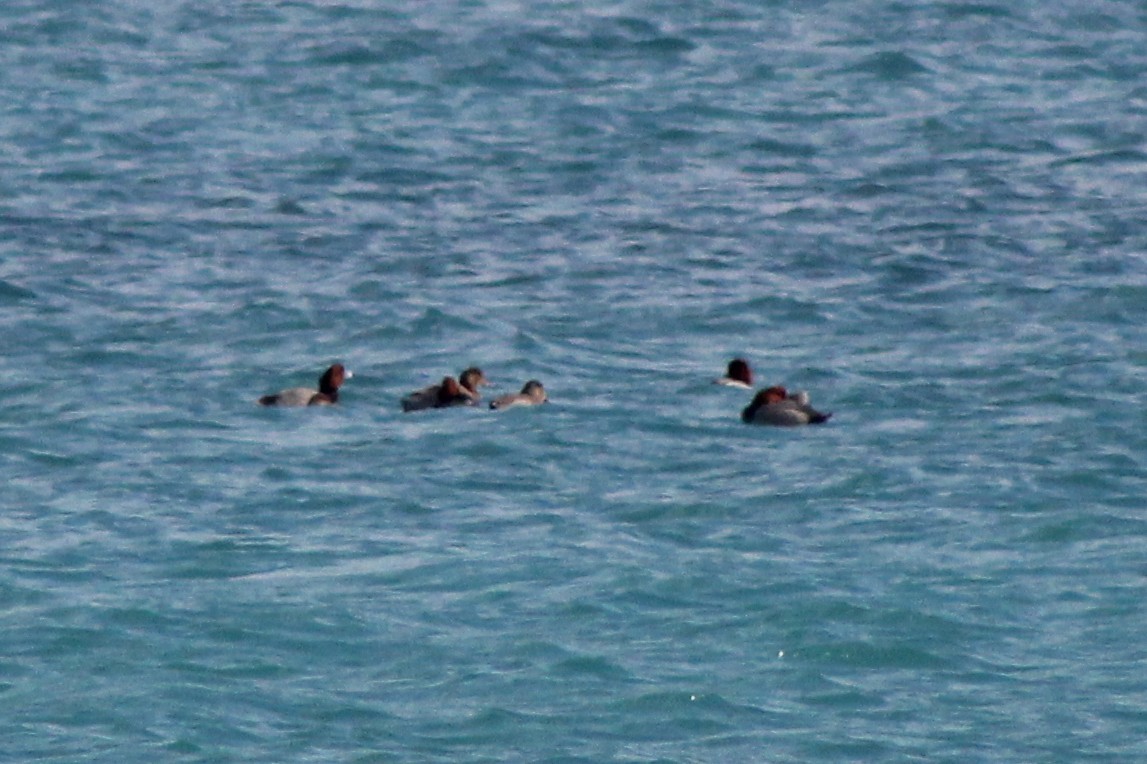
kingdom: Animalia
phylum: Chordata
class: Aves
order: Anseriformes
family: Anatidae
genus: Aythya
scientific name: Aythya americana
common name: Redhead
